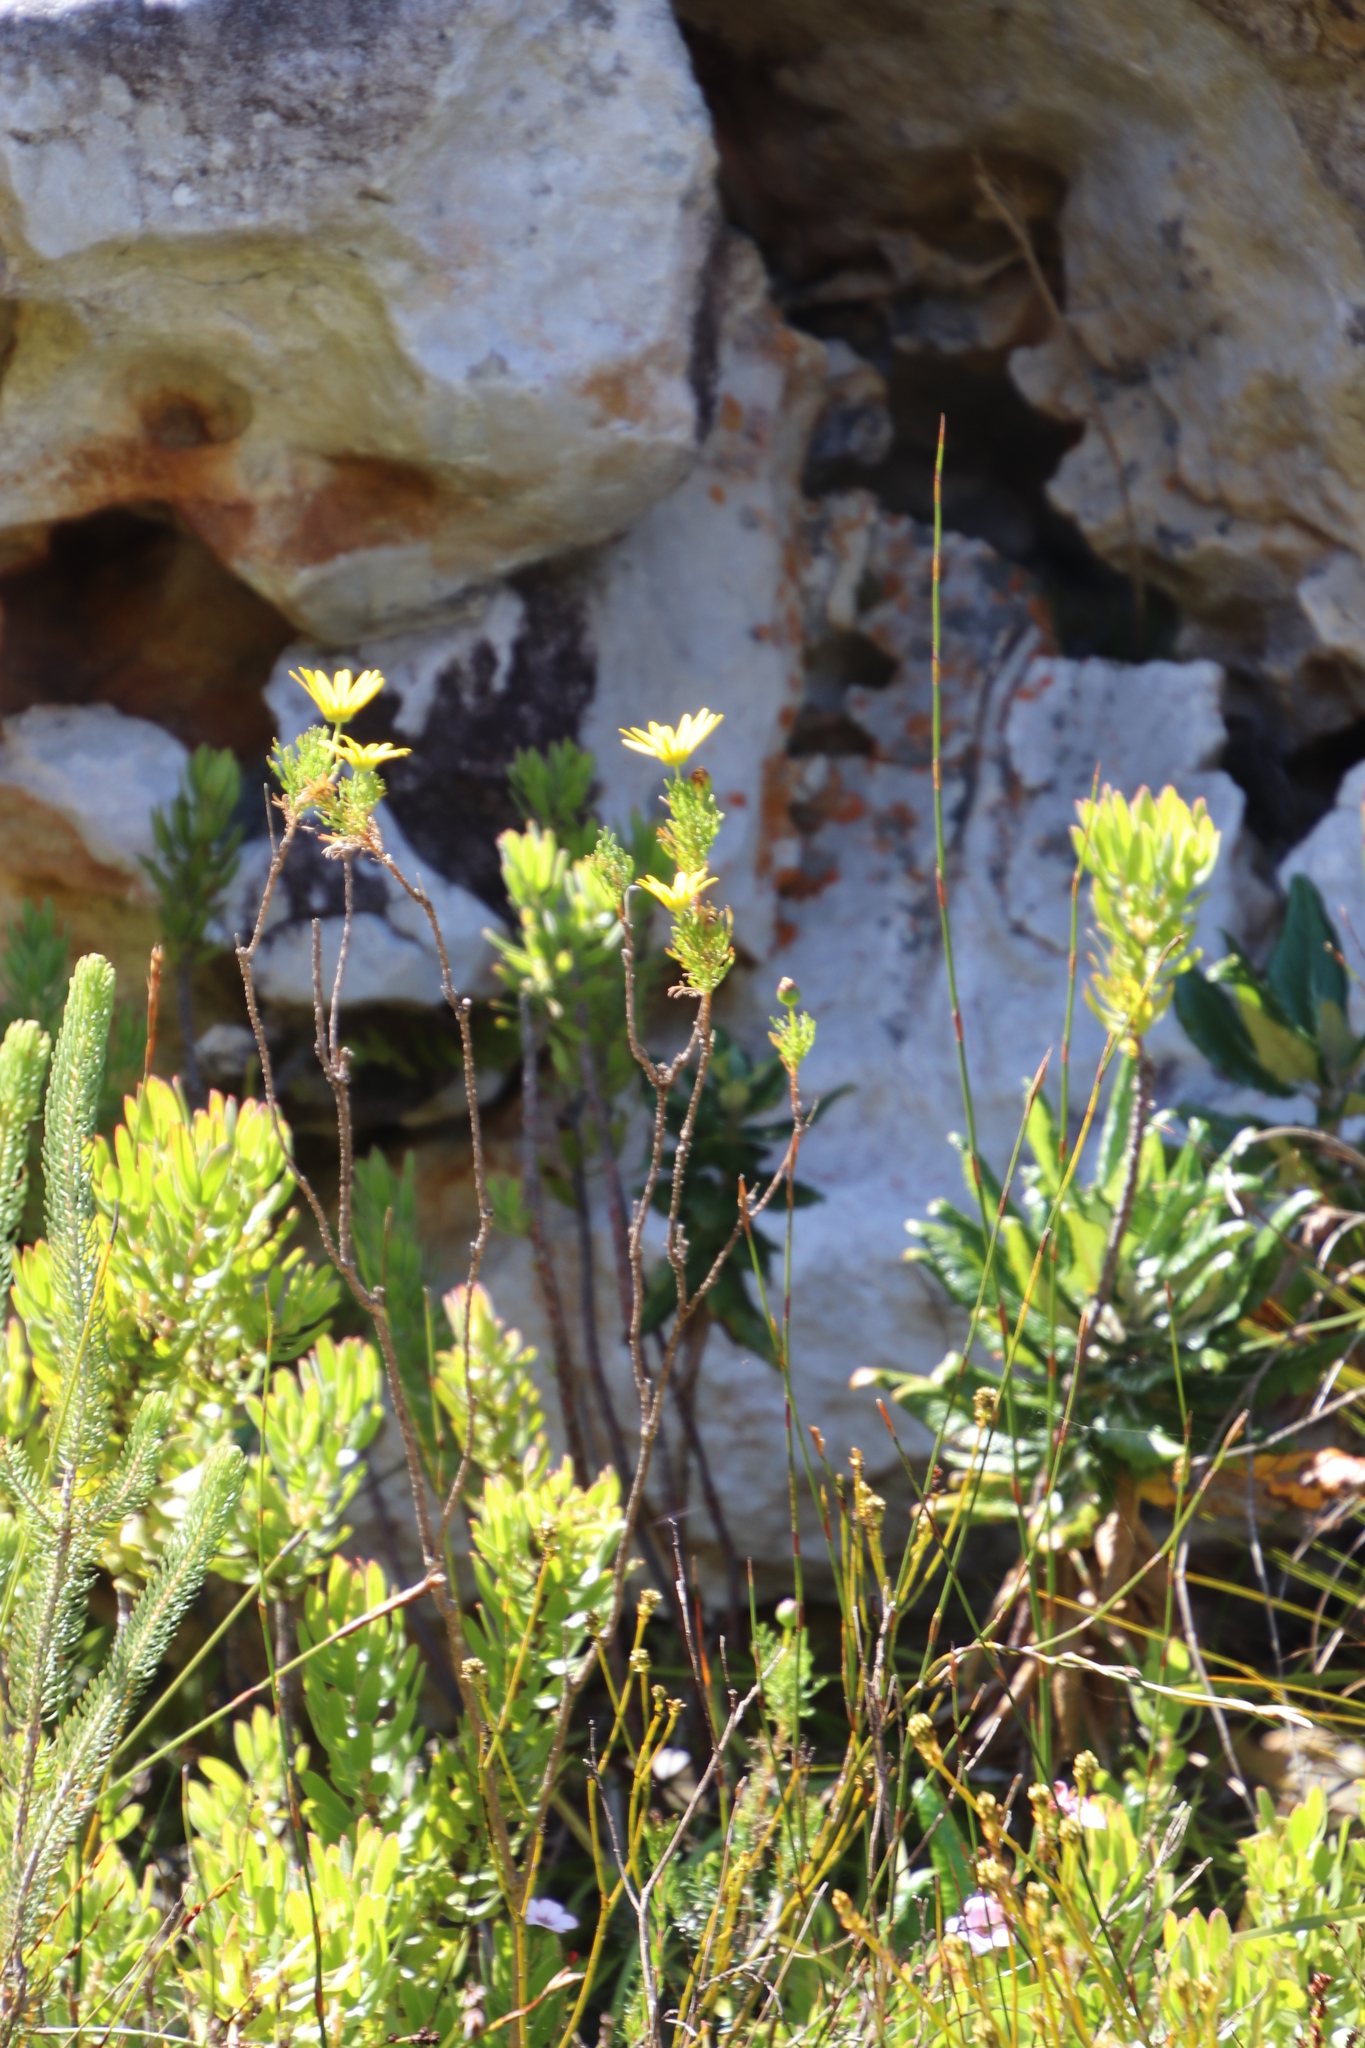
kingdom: Plantae
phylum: Tracheophyta
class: Magnoliopsida
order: Asterales
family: Asteraceae
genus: Euryops
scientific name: Euryops abrotanifolius
